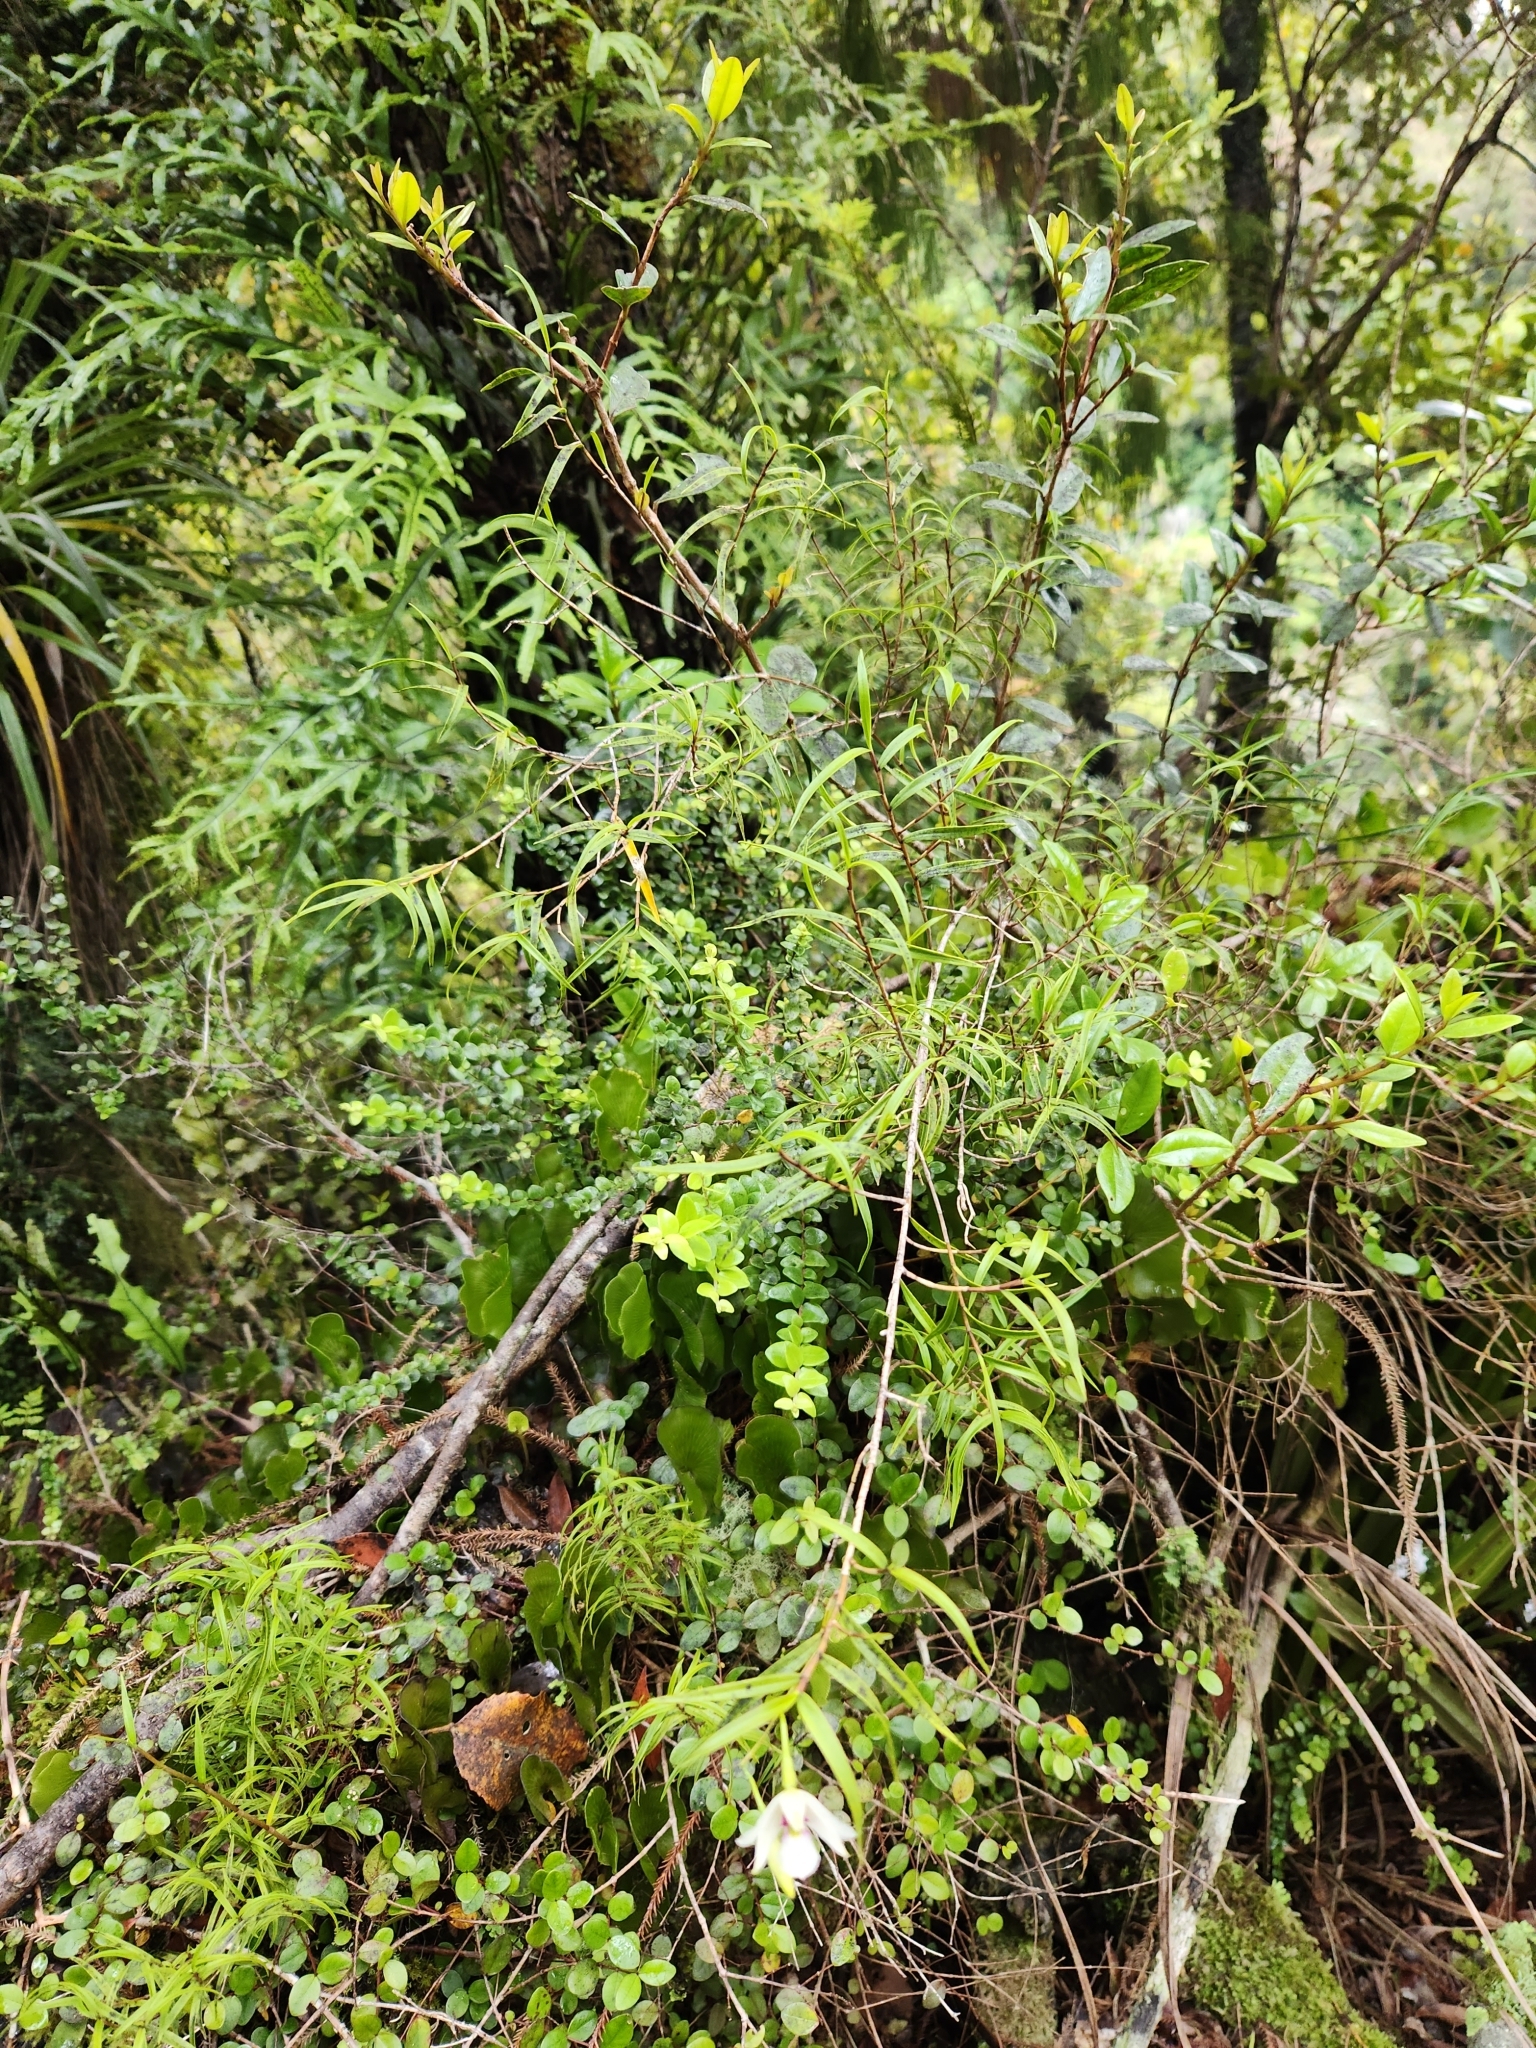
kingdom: Plantae
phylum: Tracheophyta
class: Liliopsida
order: Asparagales
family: Orchidaceae
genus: Dendrobium
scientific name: Dendrobium cunninghamii
